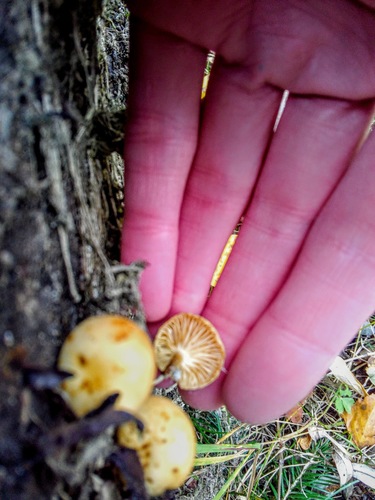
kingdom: Fungi
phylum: Basidiomycota
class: Agaricomycetes
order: Agaricales
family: Physalacriaceae
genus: Flammulina
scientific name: Flammulina velutipes
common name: Velvet shank
